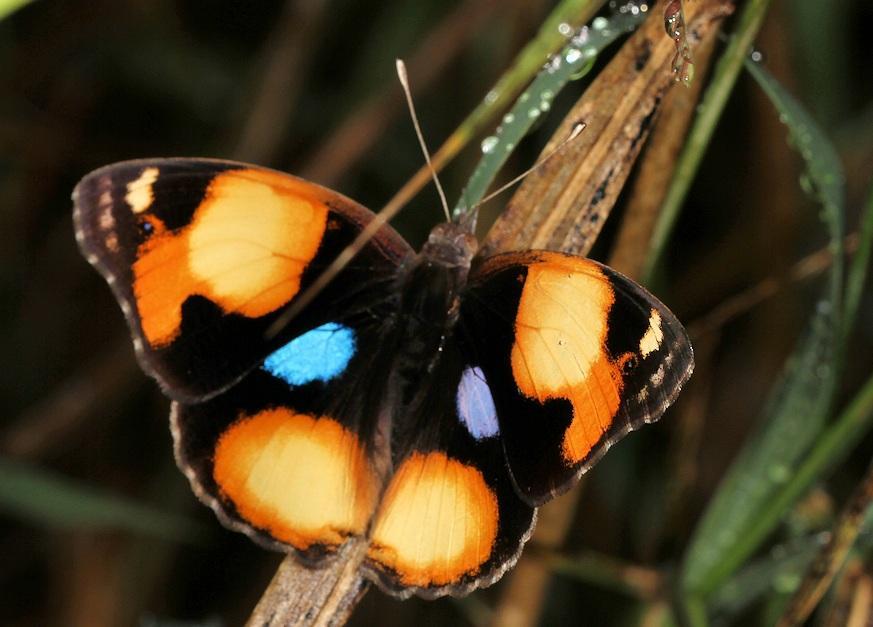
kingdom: Animalia
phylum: Arthropoda
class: Insecta
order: Lepidoptera
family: Nymphalidae
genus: Junonia
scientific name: Junonia hierta
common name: Yellow pansy
